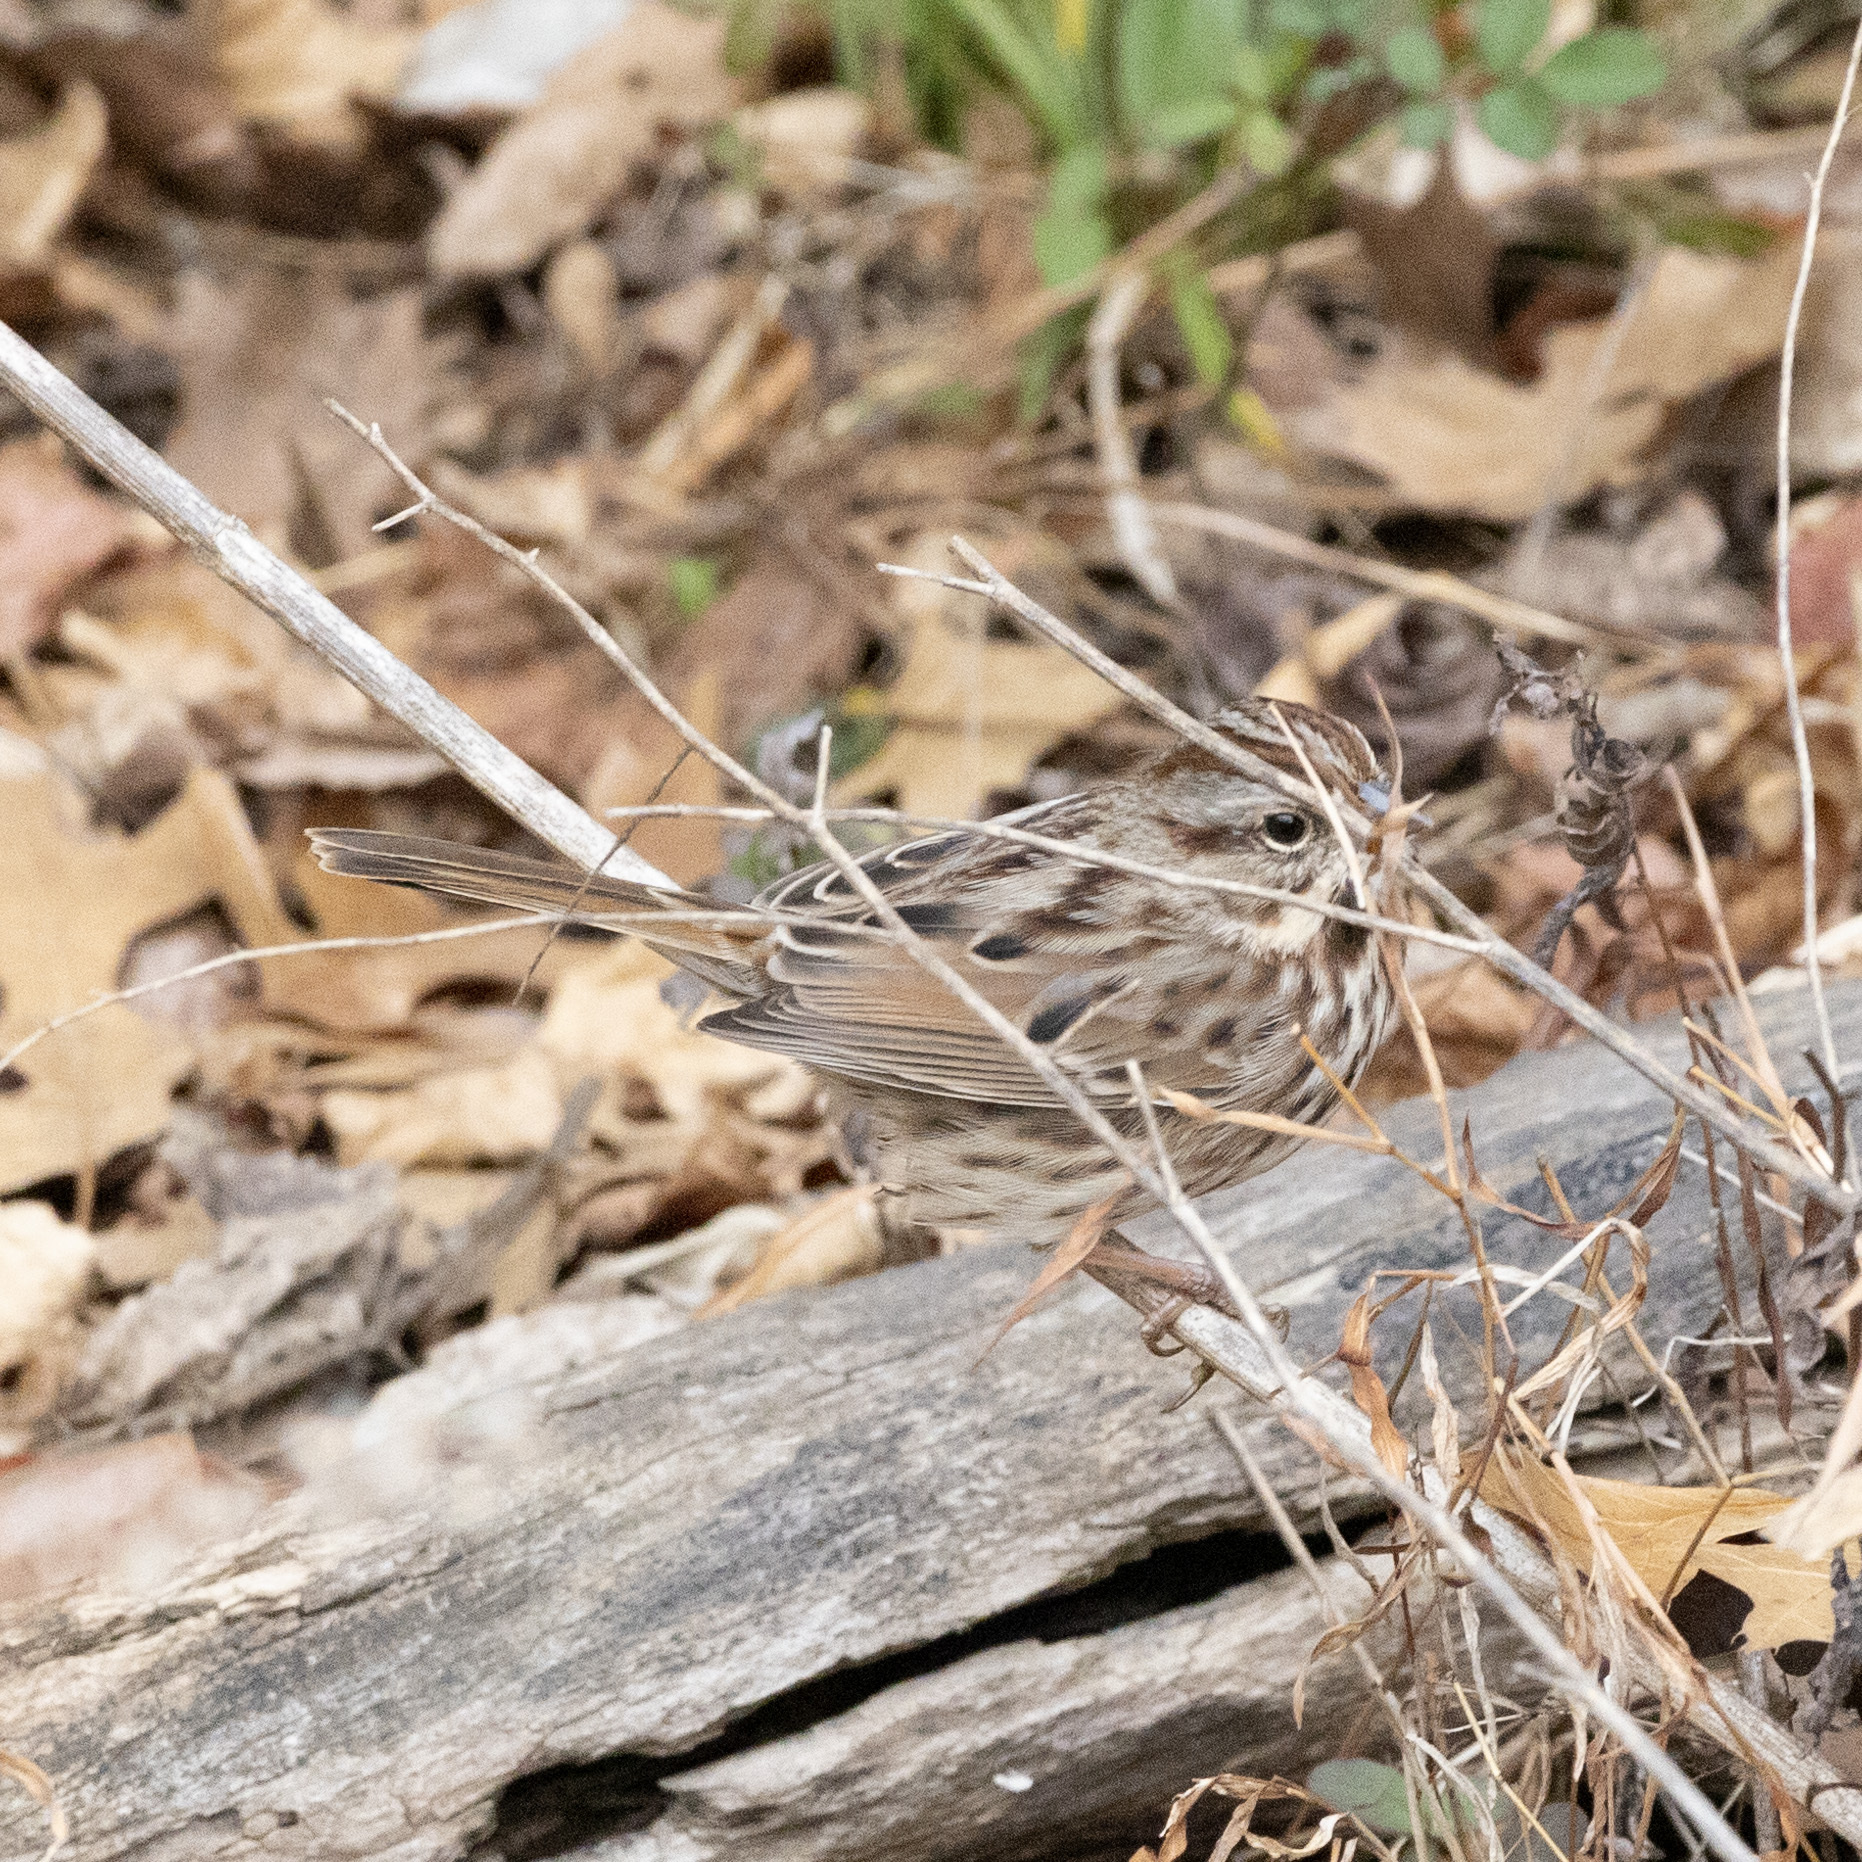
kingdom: Animalia
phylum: Chordata
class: Aves
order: Passeriformes
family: Passerellidae
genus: Melospiza
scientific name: Melospiza melodia
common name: Song sparrow
